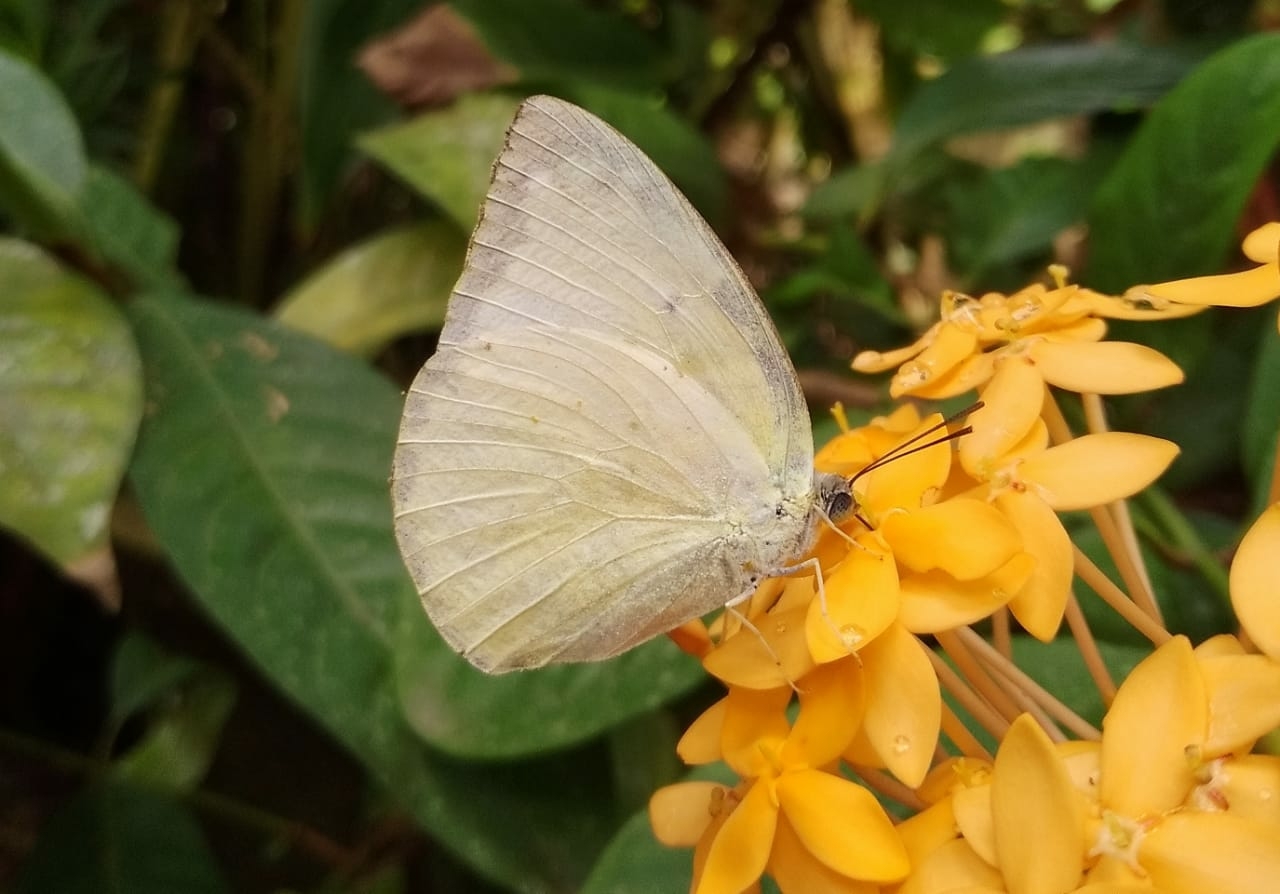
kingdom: Animalia
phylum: Arthropoda
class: Insecta
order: Lepidoptera
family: Pieridae
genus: Catopsilia
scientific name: Catopsilia pomona
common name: Common emigrant
